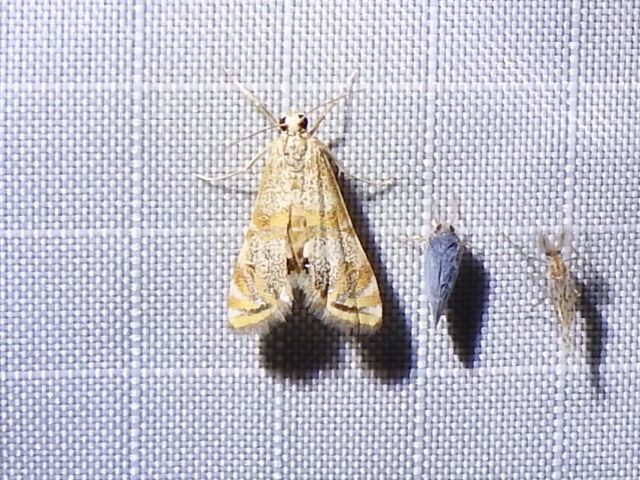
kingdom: Animalia
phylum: Arthropoda
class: Insecta
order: Lepidoptera
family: Crambidae
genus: Petrophila
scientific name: Petrophila bifascialis
